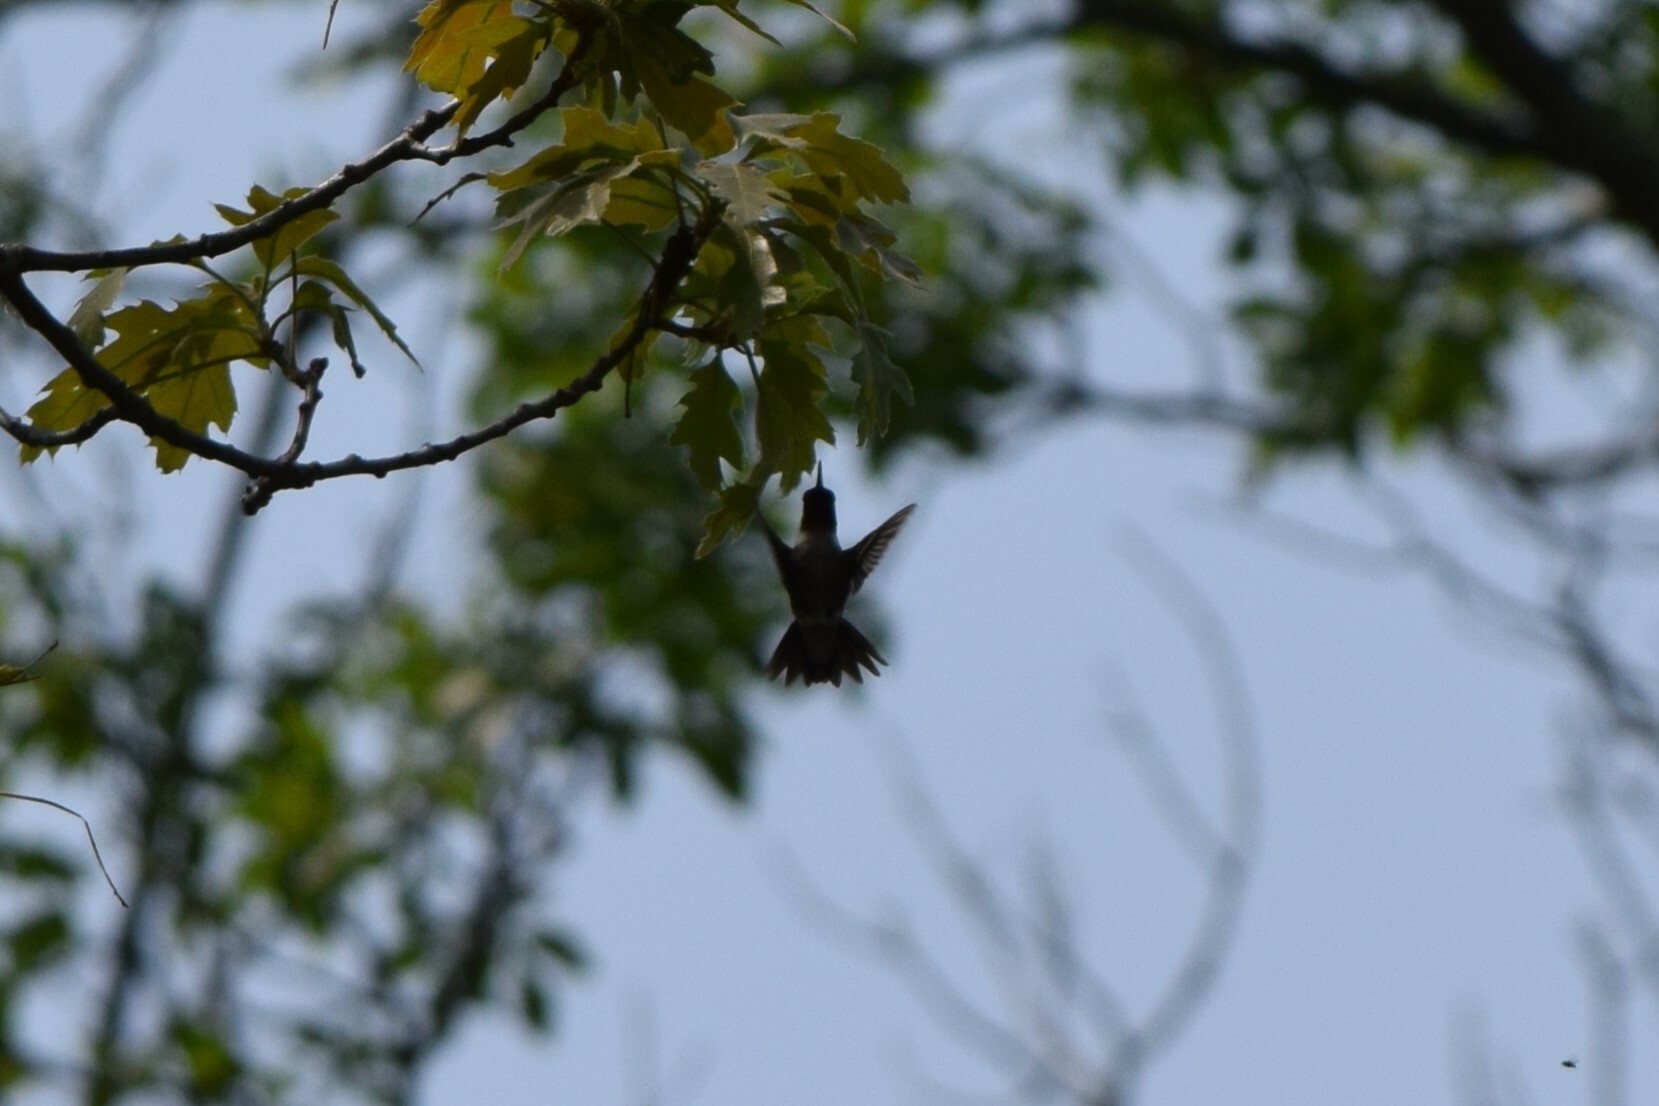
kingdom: Animalia
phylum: Chordata
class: Aves
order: Apodiformes
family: Trochilidae
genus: Archilochus
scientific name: Archilochus colubris
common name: Ruby-throated hummingbird
